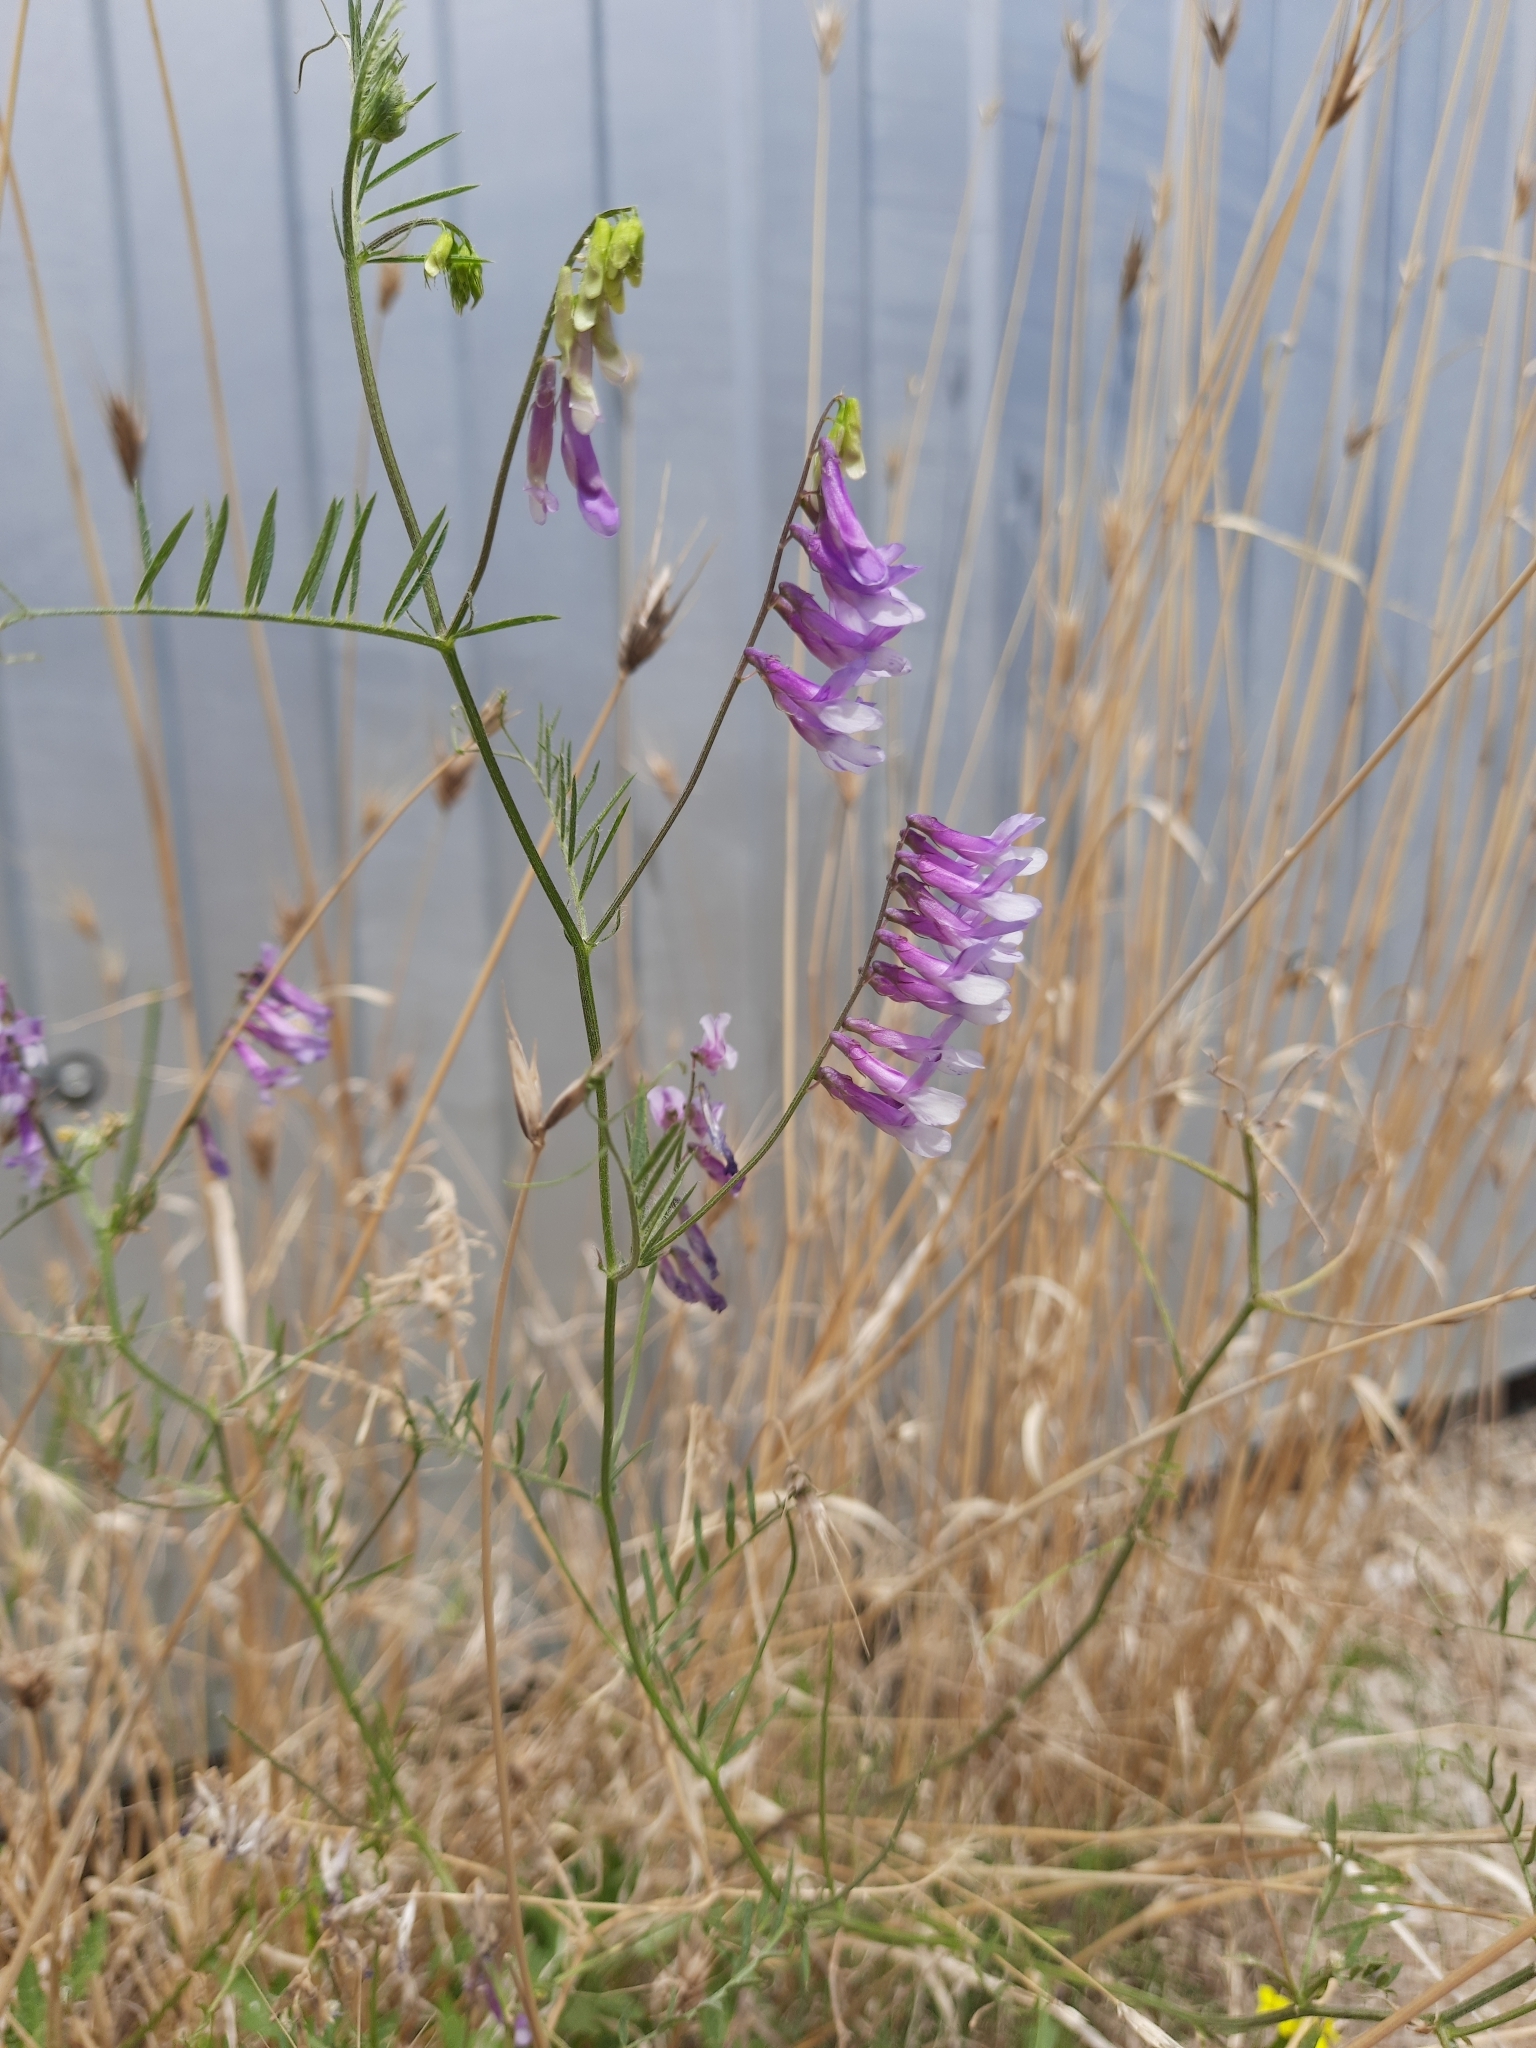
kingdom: Plantae
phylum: Tracheophyta
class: Magnoliopsida
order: Fabales
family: Fabaceae
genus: Vicia
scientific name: Vicia villosa
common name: Fodder vetch
